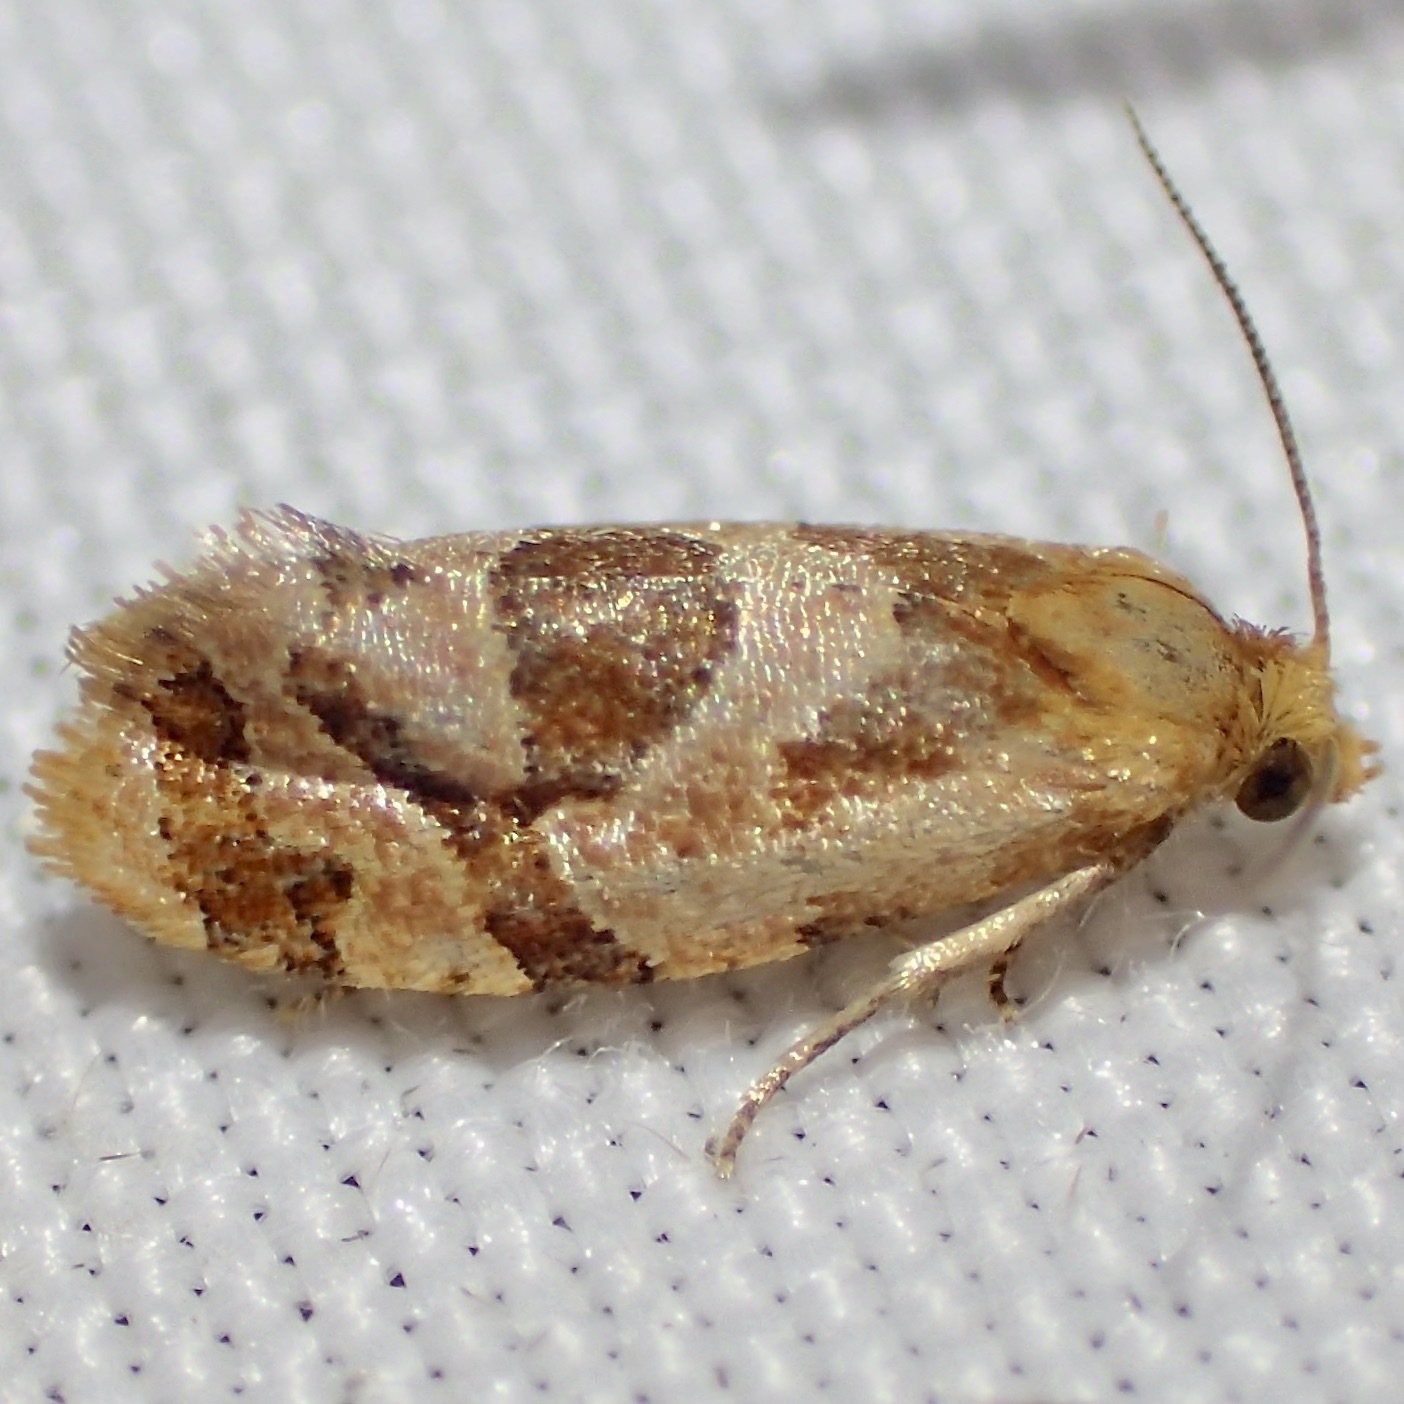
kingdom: Animalia
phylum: Arthropoda
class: Insecta
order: Lepidoptera
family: Tortricidae
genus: Hyptiharpa
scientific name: Hyptiharpa baboquavariana
